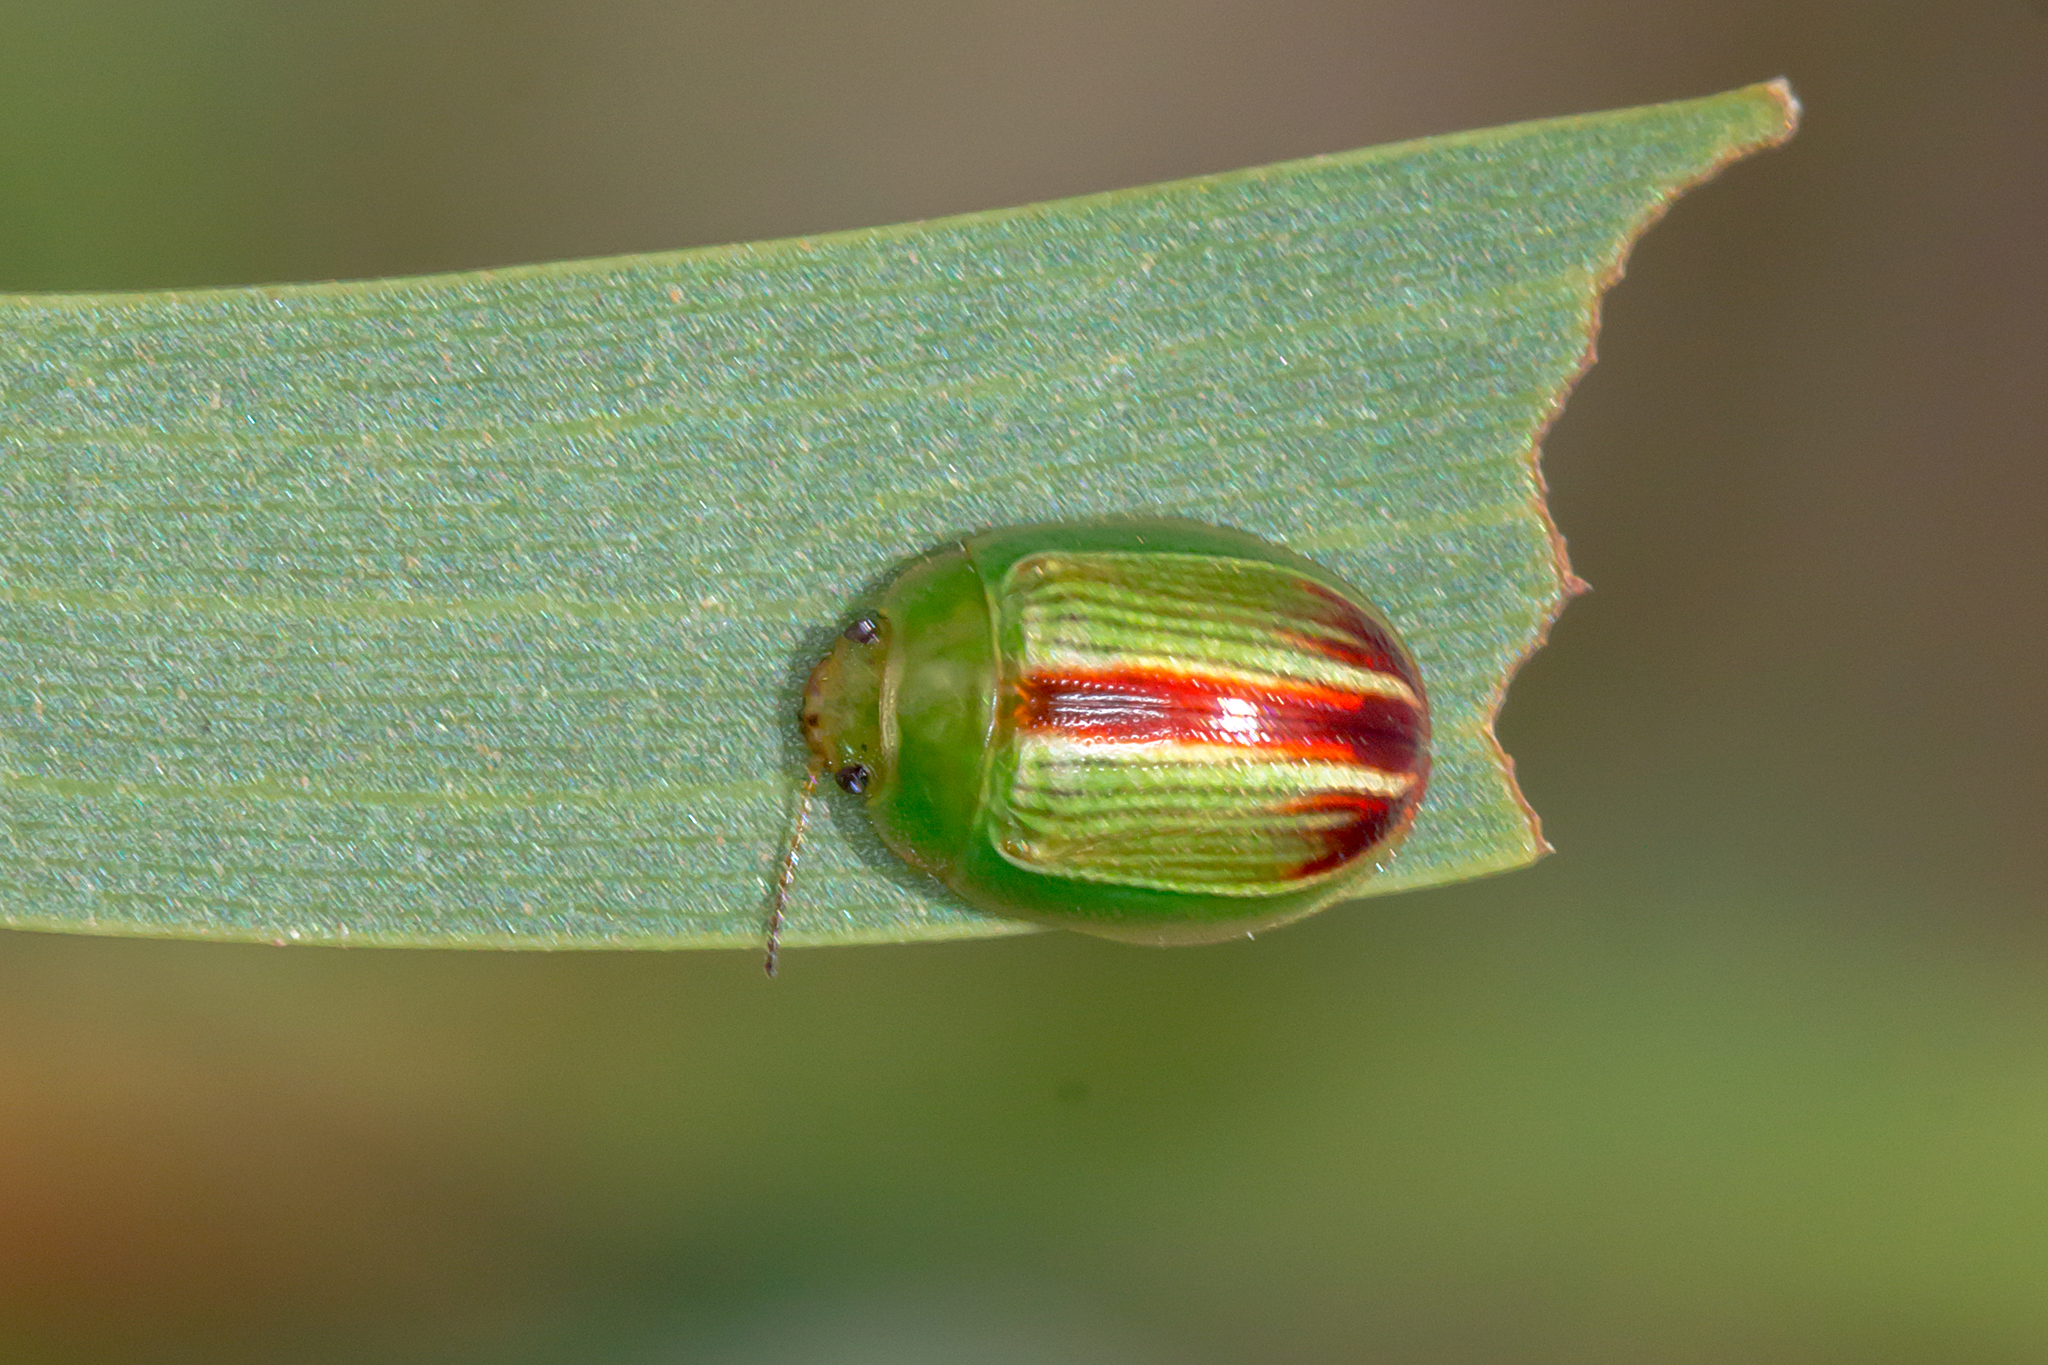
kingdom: Animalia
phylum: Arthropoda
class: Insecta
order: Coleoptera
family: Chrysomelidae
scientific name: Chrysomelidae
